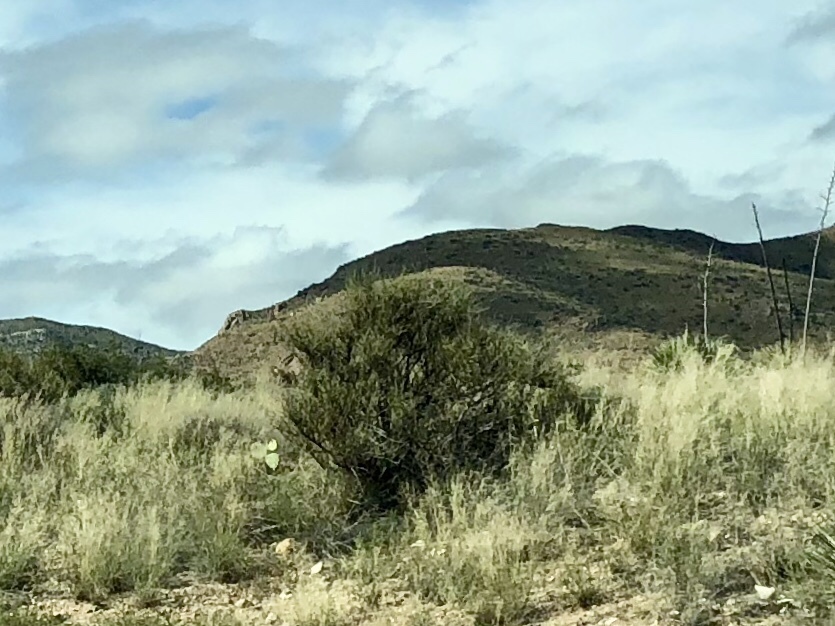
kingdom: Plantae
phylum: Tracheophyta
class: Magnoliopsida
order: Brassicales
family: Koeberliniaceae
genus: Koeberlinia
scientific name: Koeberlinia spinosa
